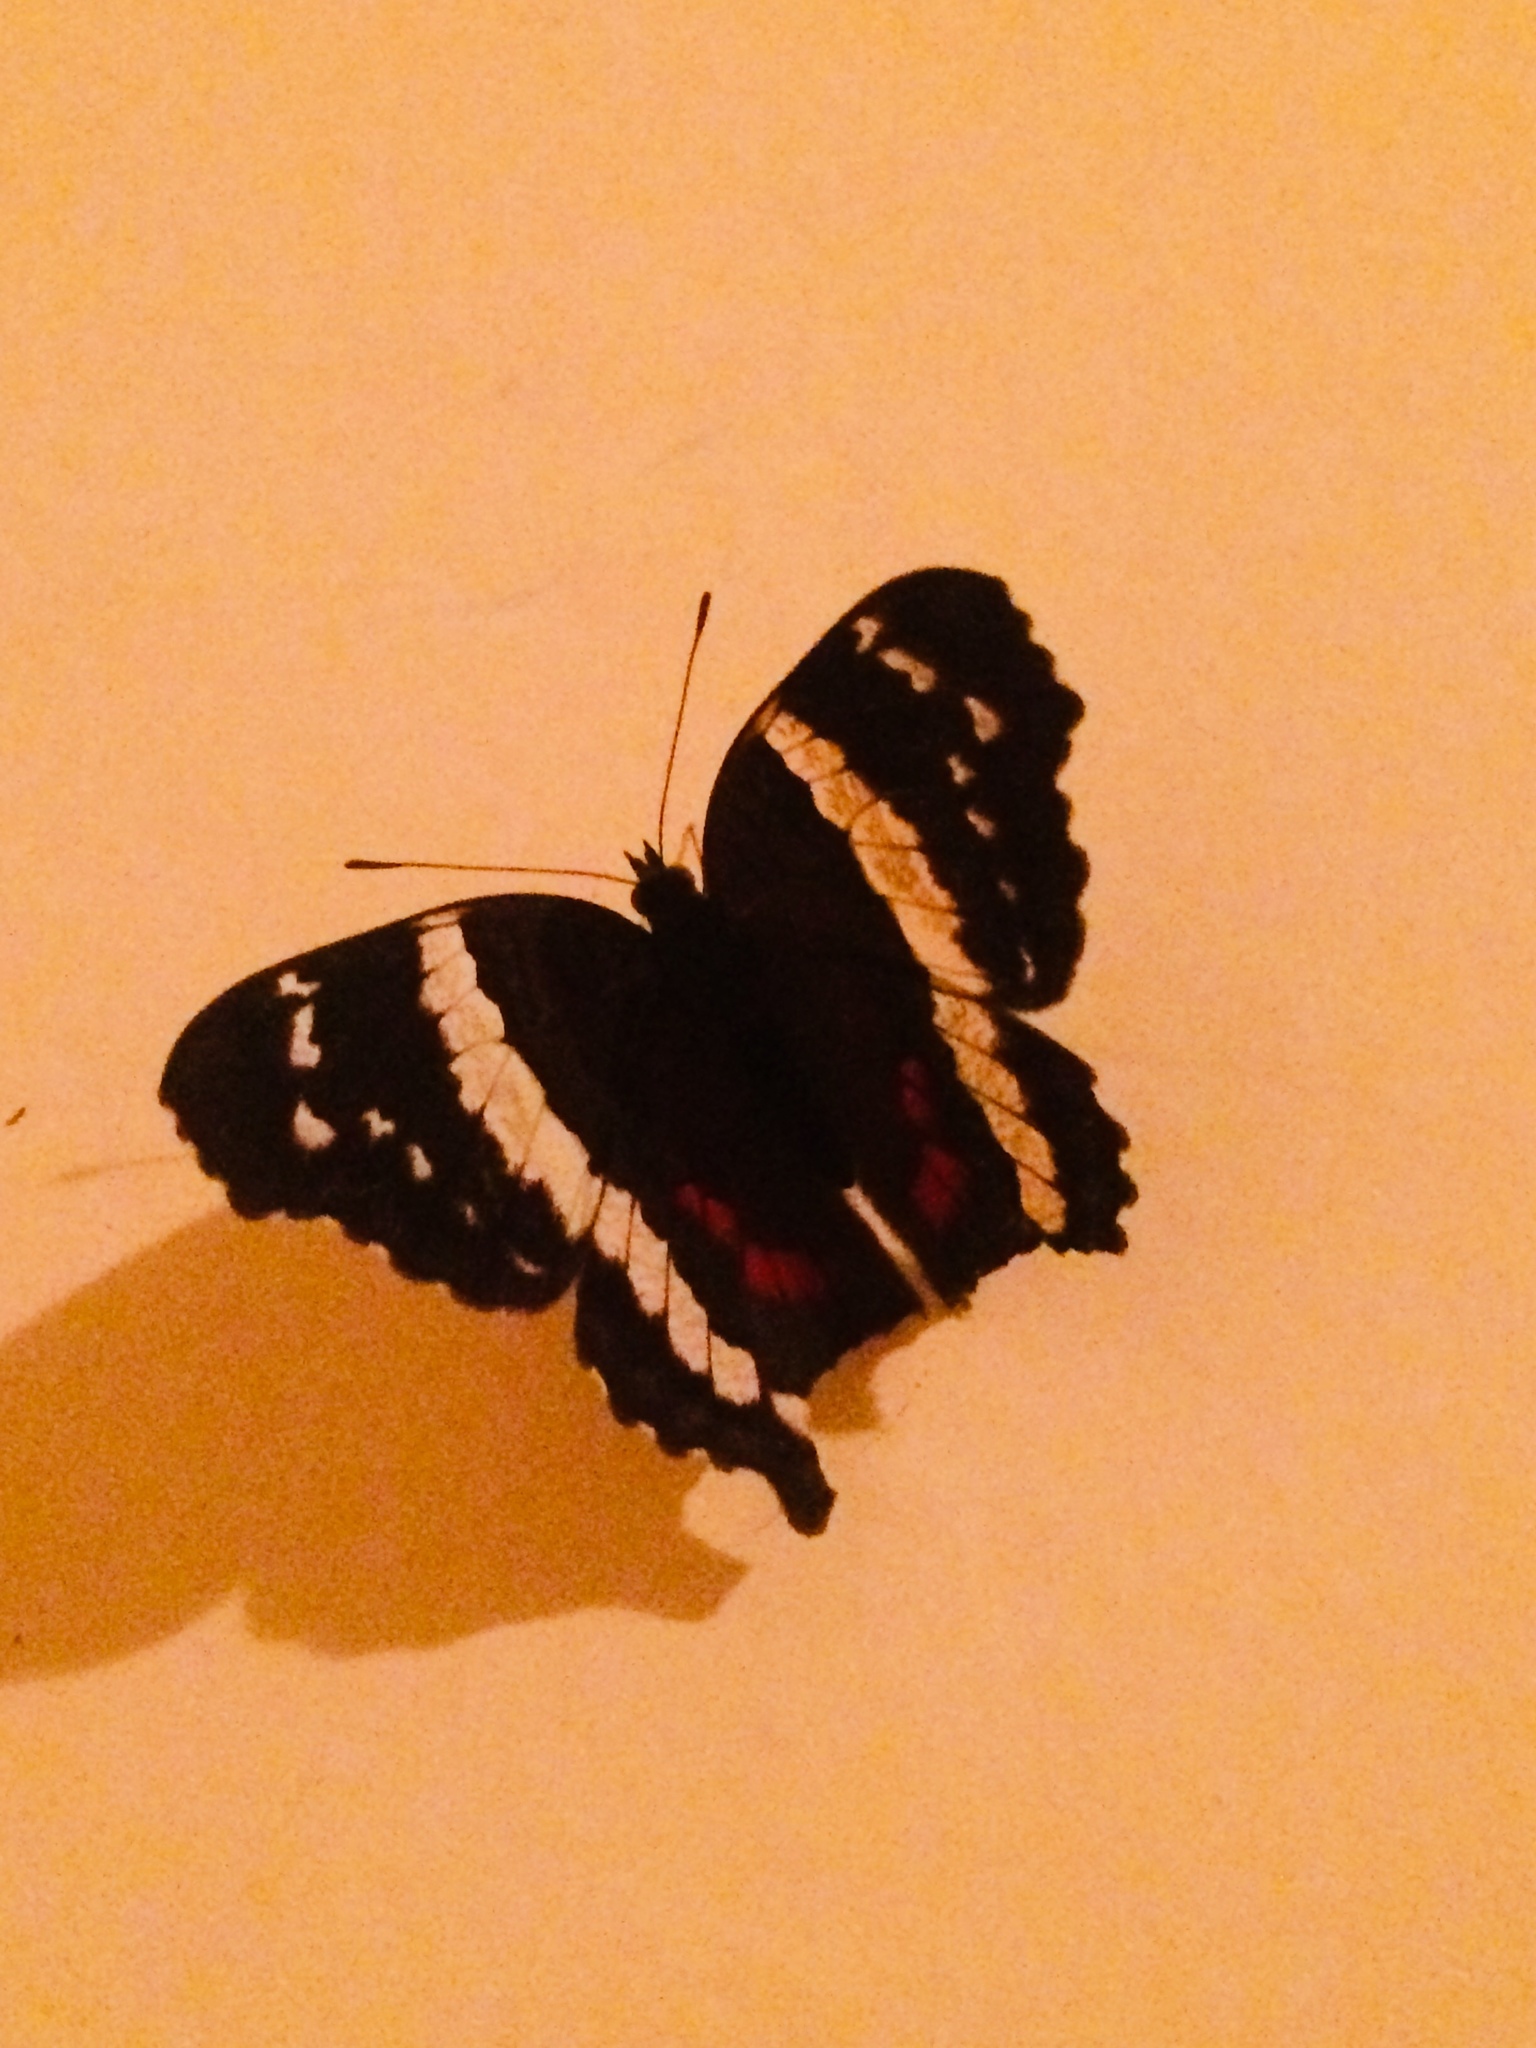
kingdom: Animalia
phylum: Arthropoda
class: Insecta
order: Lepidoptera
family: Nymphalidae
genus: Anartia
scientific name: Anartia fatima
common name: Banded peacock
